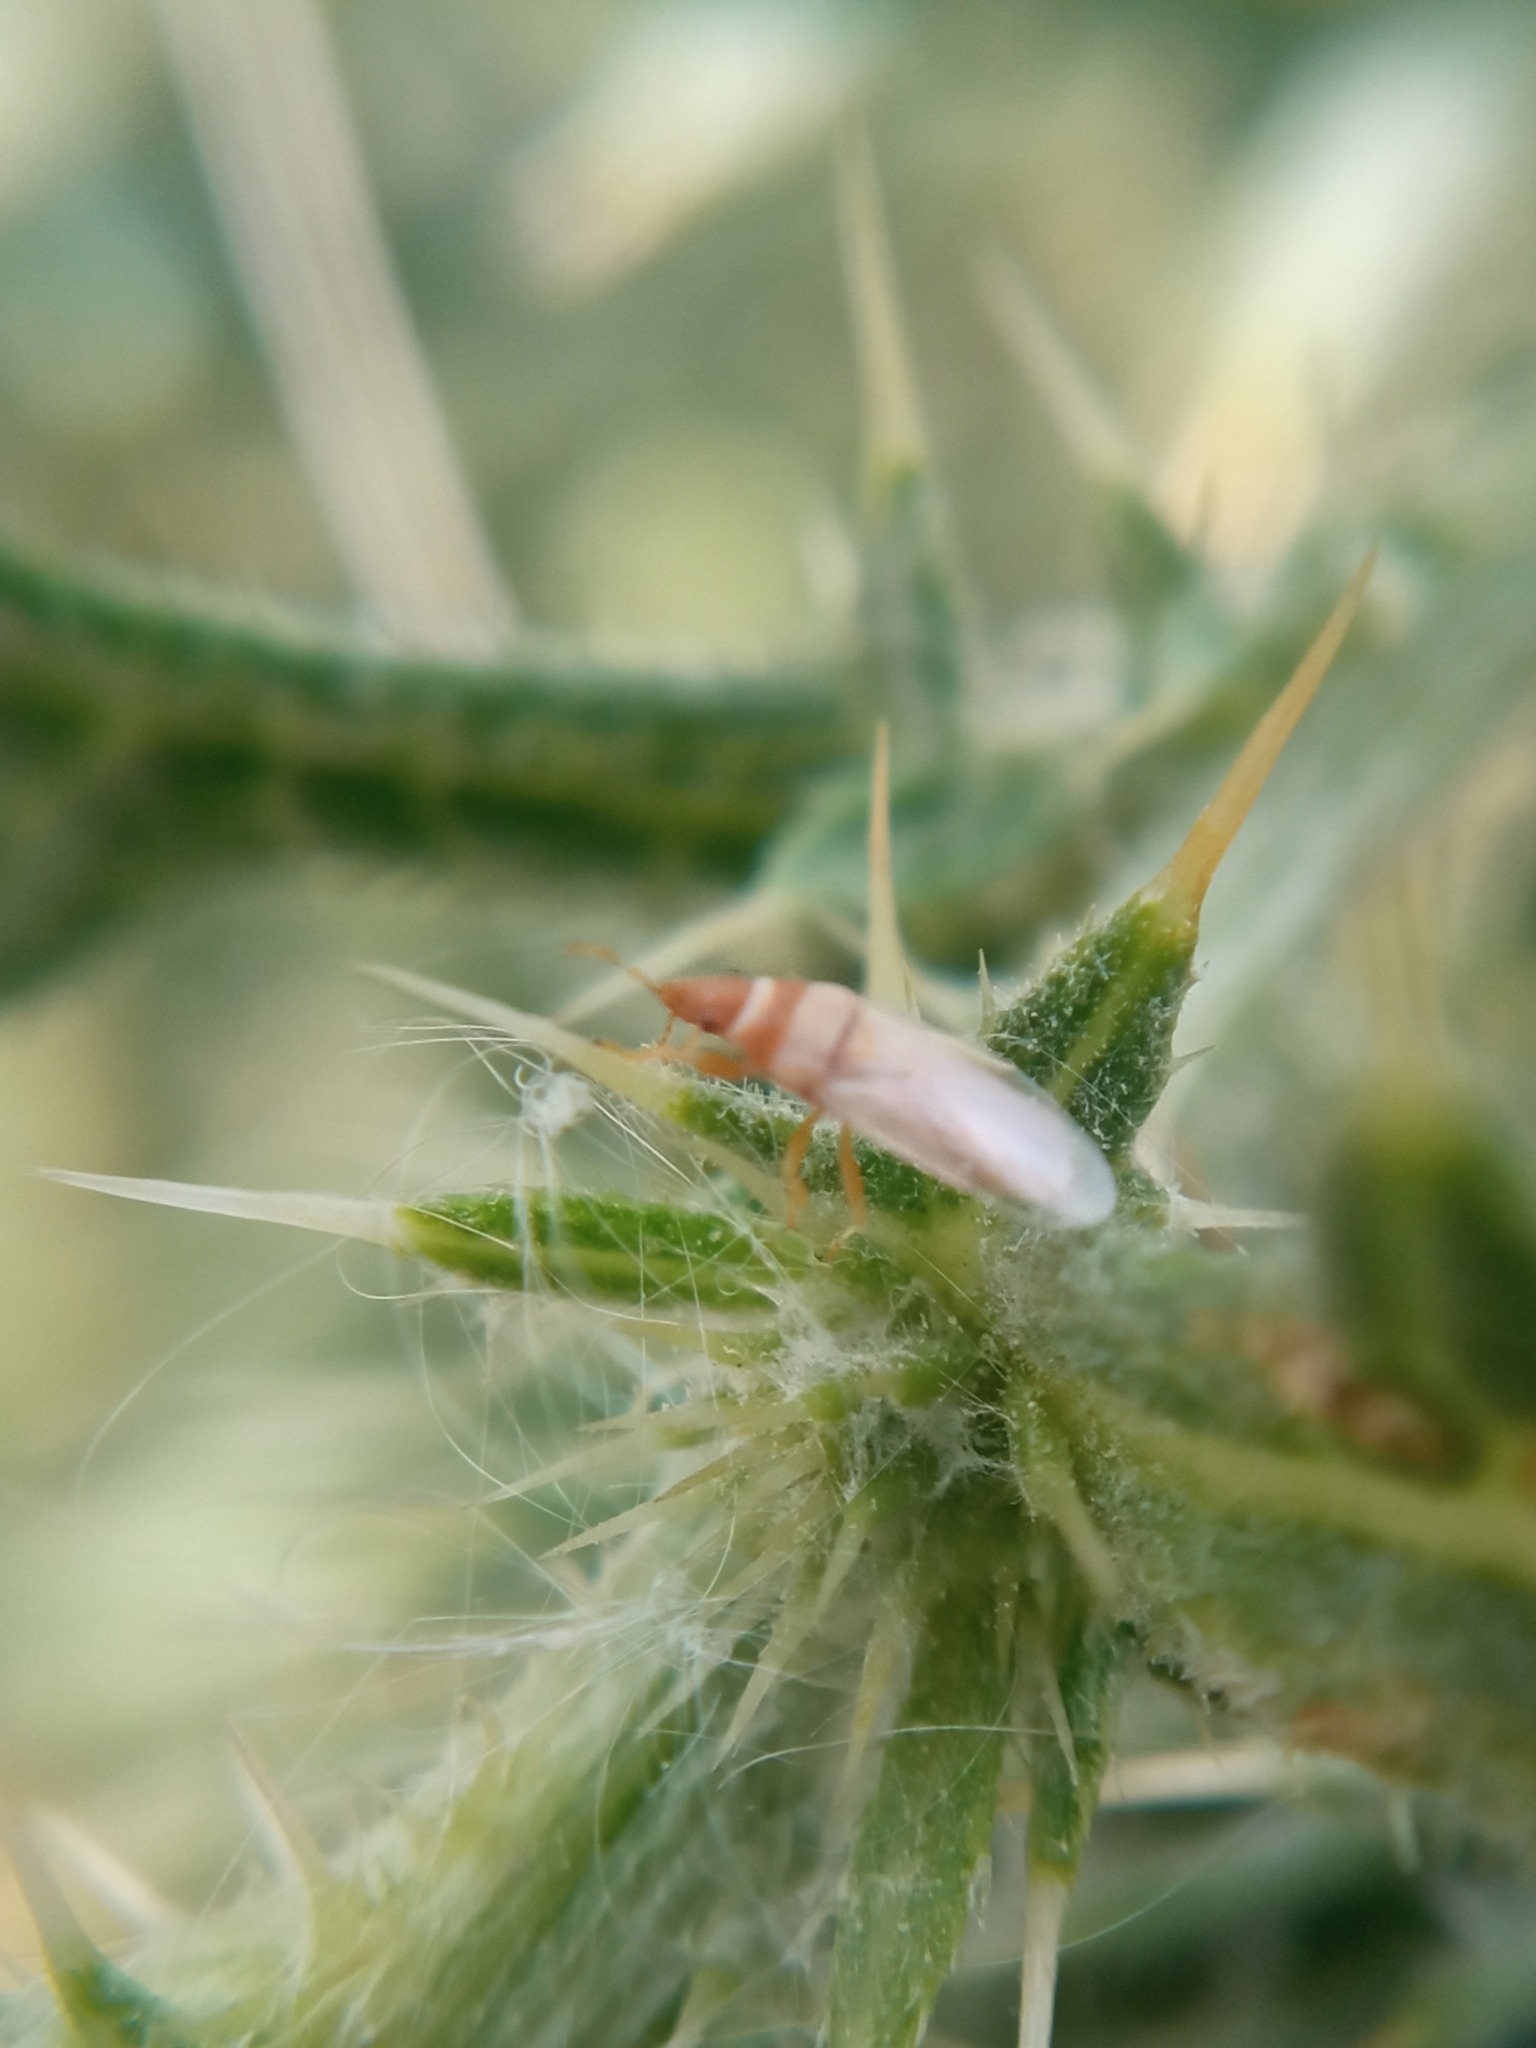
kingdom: Animalia
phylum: Arthropoda
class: Insecta
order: Hemiptera
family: Oxycarenidae
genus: Oxycarenus
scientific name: Oxycarenus pallens
